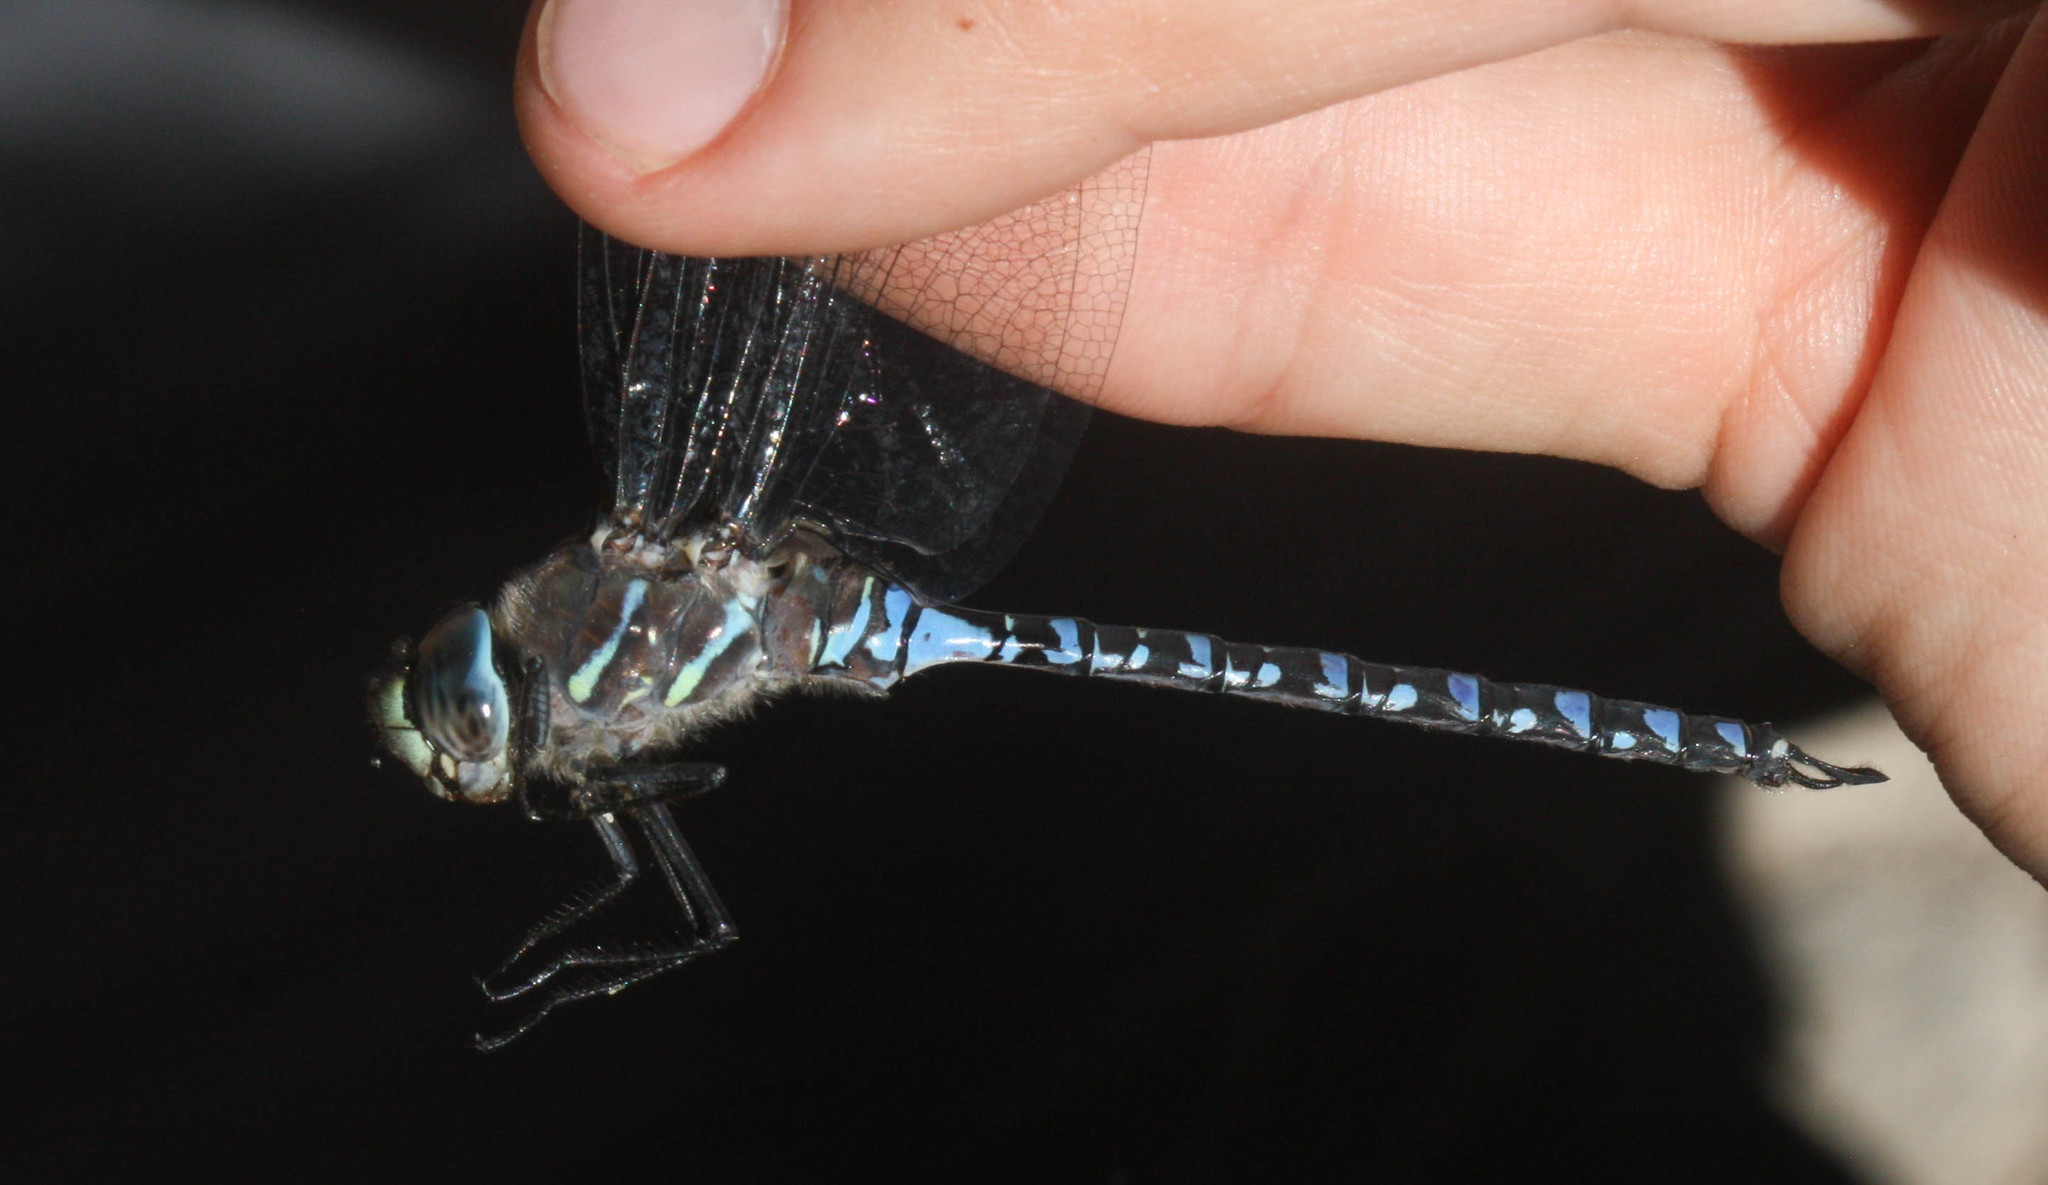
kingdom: Animalia
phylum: Arthropoda
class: Insecta
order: Odonata
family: Aeshnidae
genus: Aeshna
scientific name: Aeshna interrupta
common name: Variable darner
